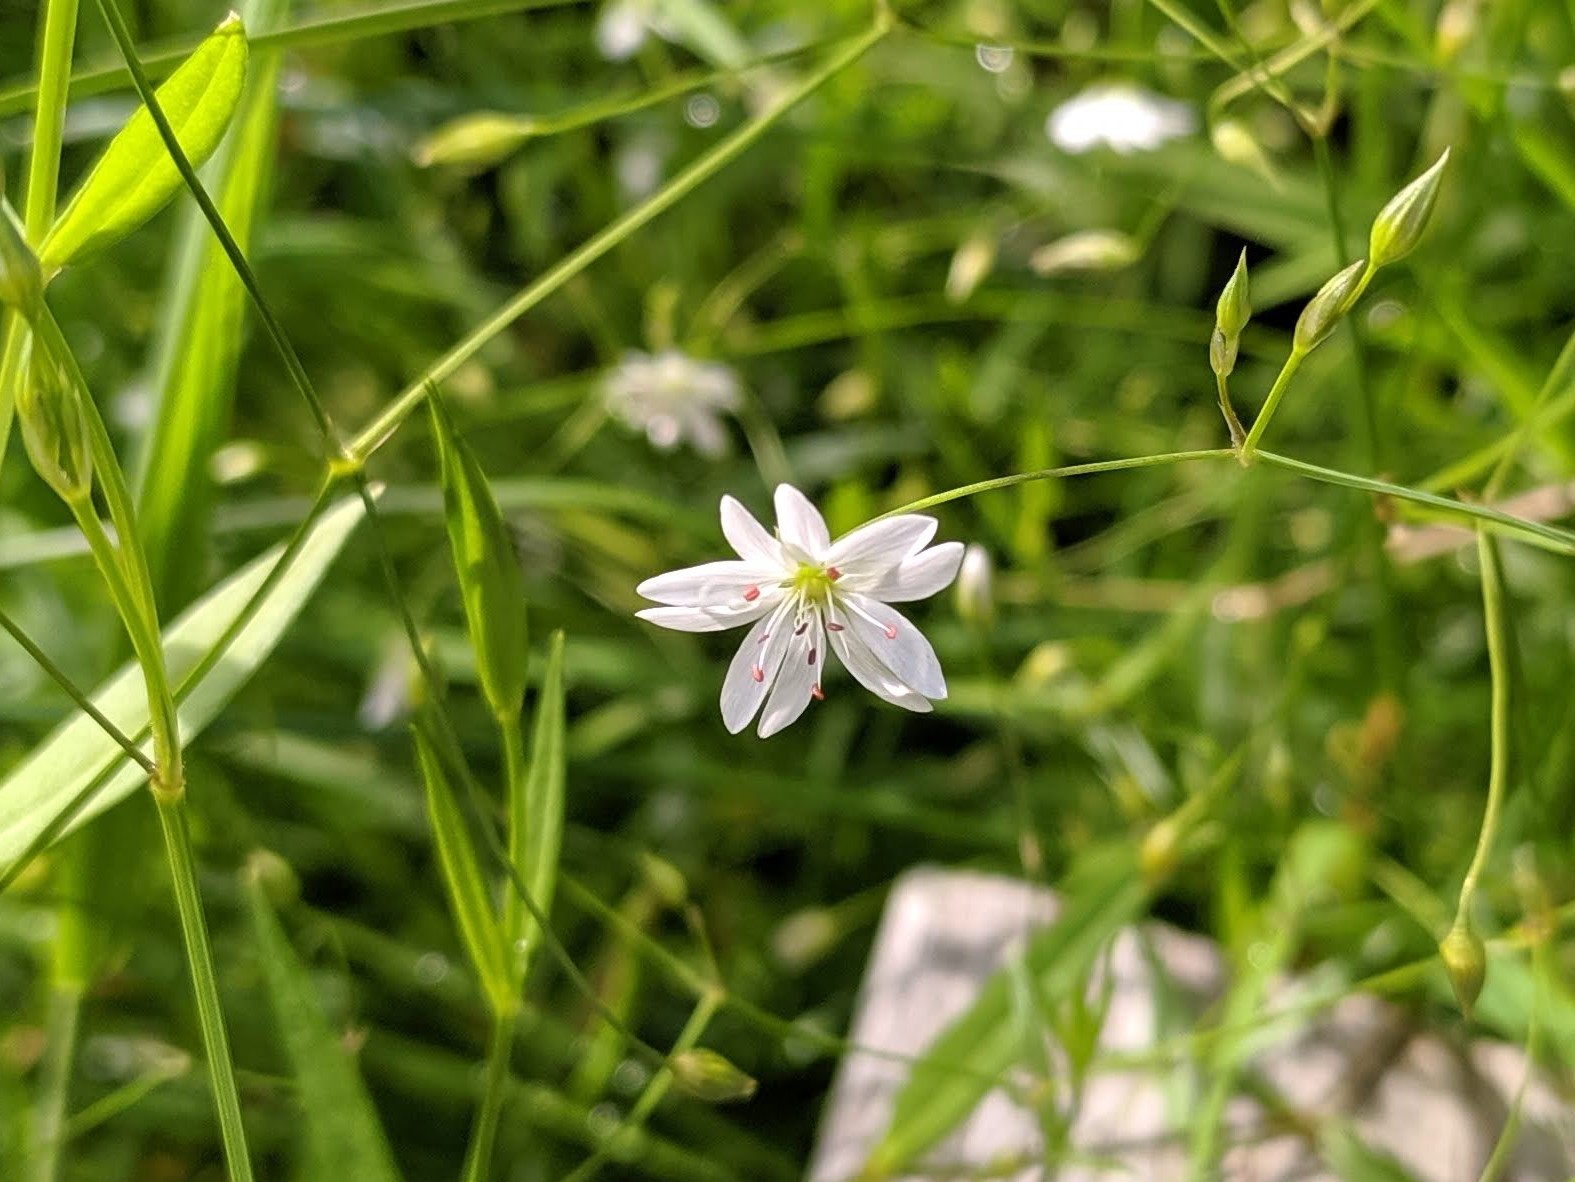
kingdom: Plantae
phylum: Tracheophyta
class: Magnoliopsida
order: Caryophyllales
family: Caryophyllaceae
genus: Stellaria
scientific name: Stellaria graminea
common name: Grass-like starwort
